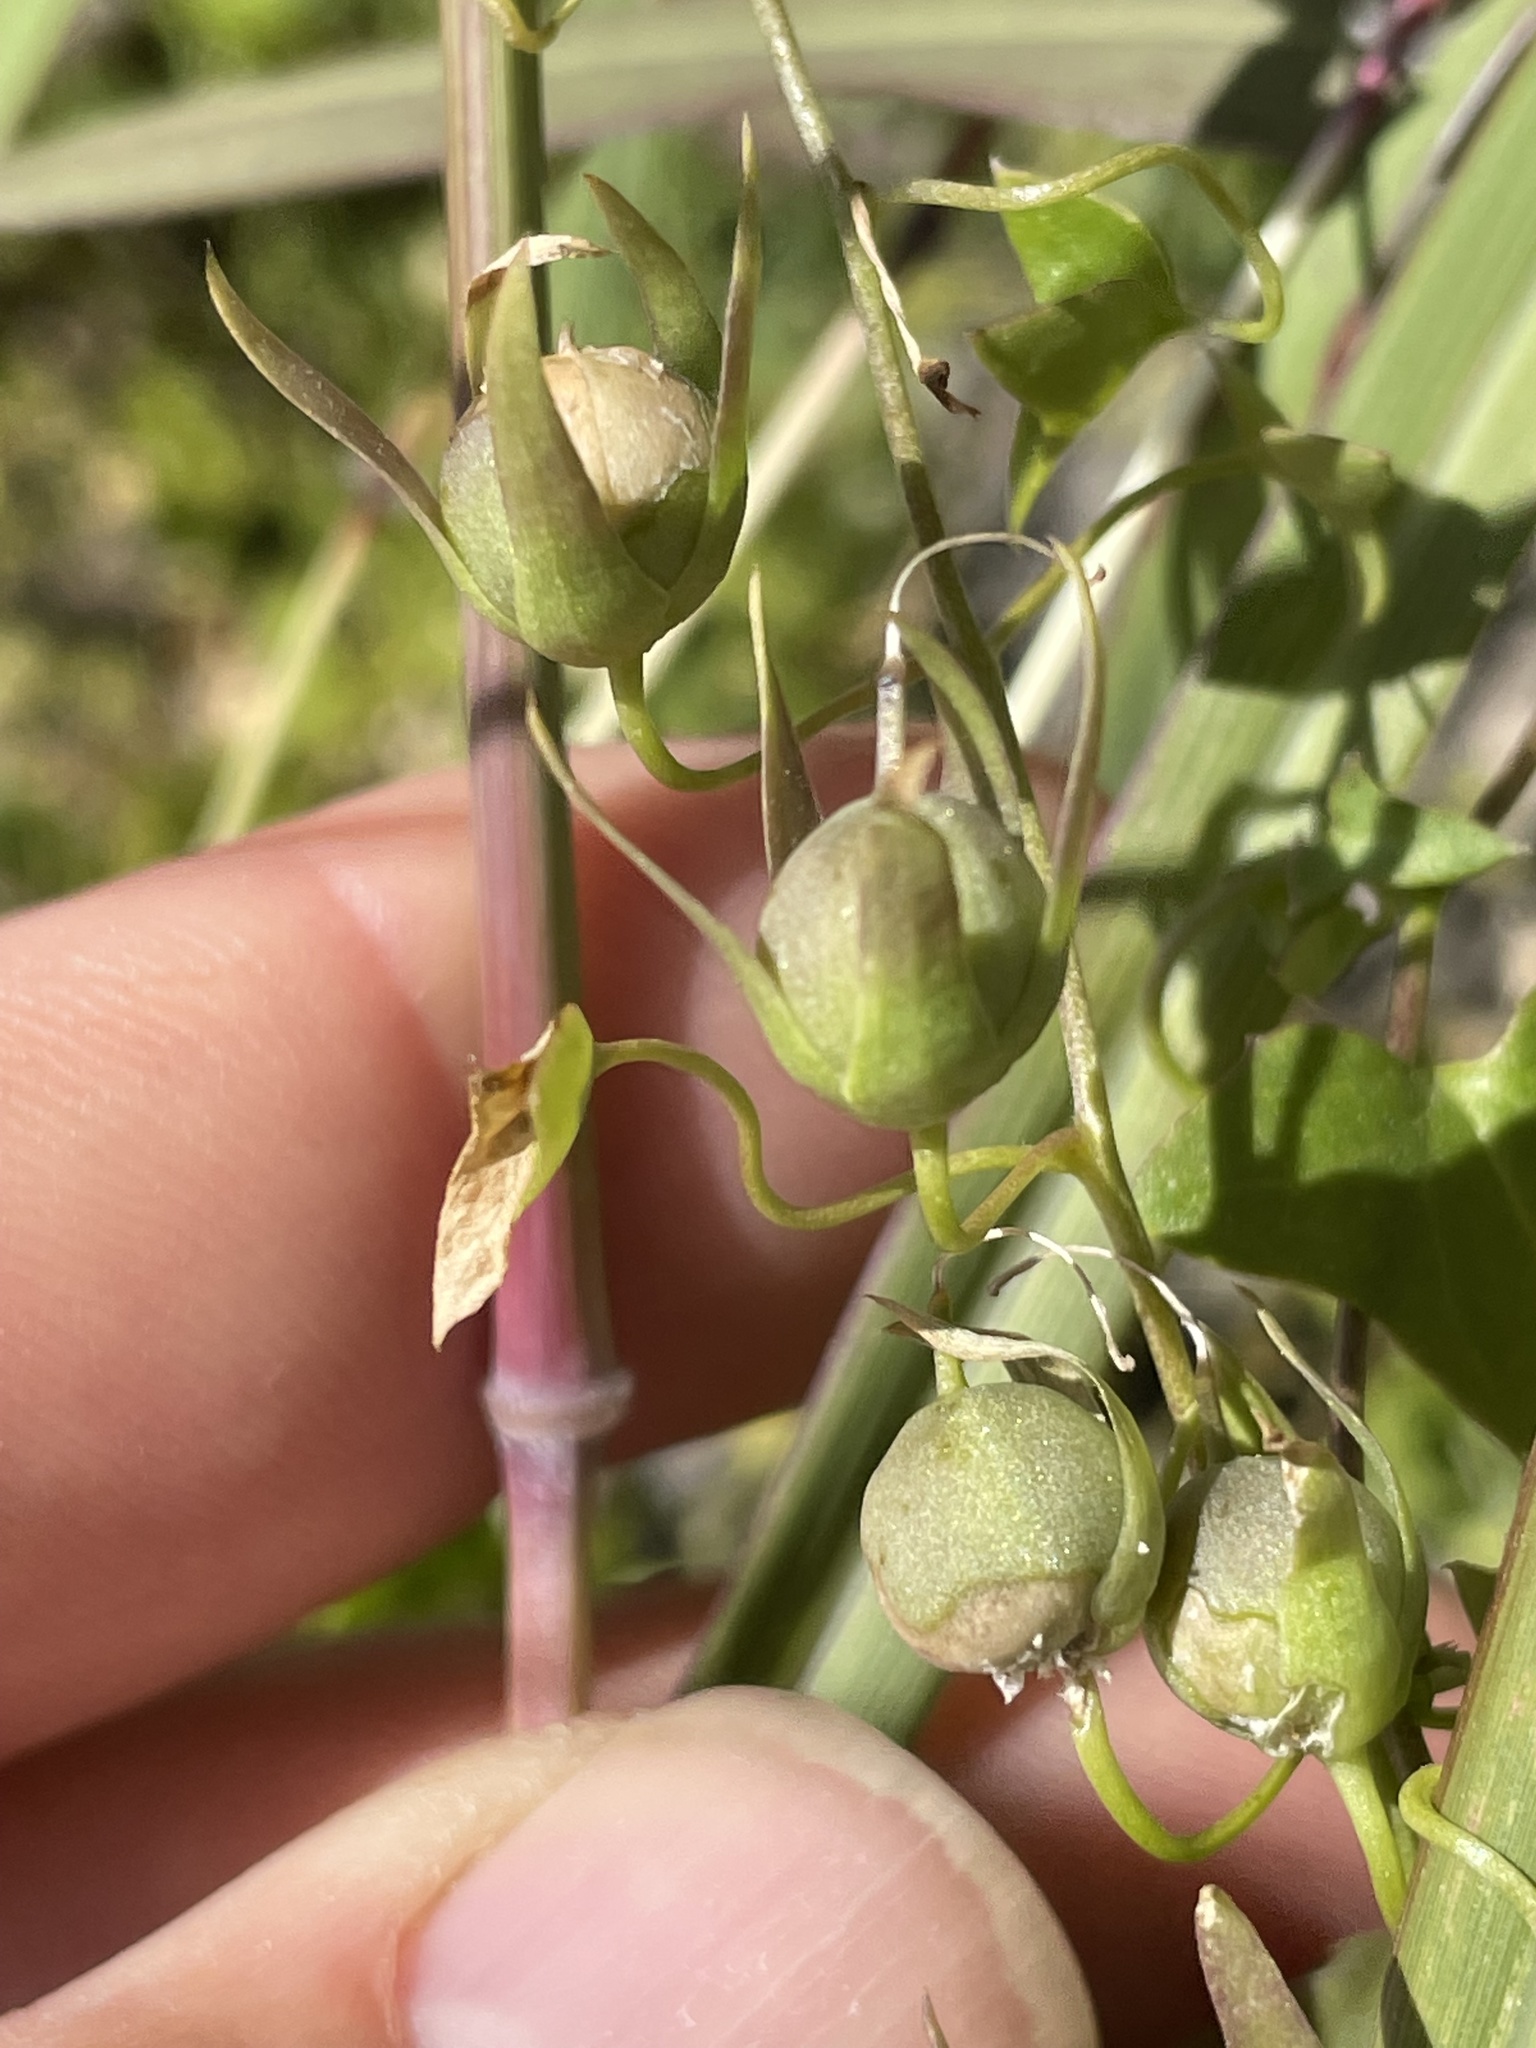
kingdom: Plantae
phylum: Tracheophyta
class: Magnoliopsida
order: Lamiales
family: Plantaginaceae
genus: Maurandella
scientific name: Maurandella antirrhiniflora
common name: Violet twining-snapdragon
